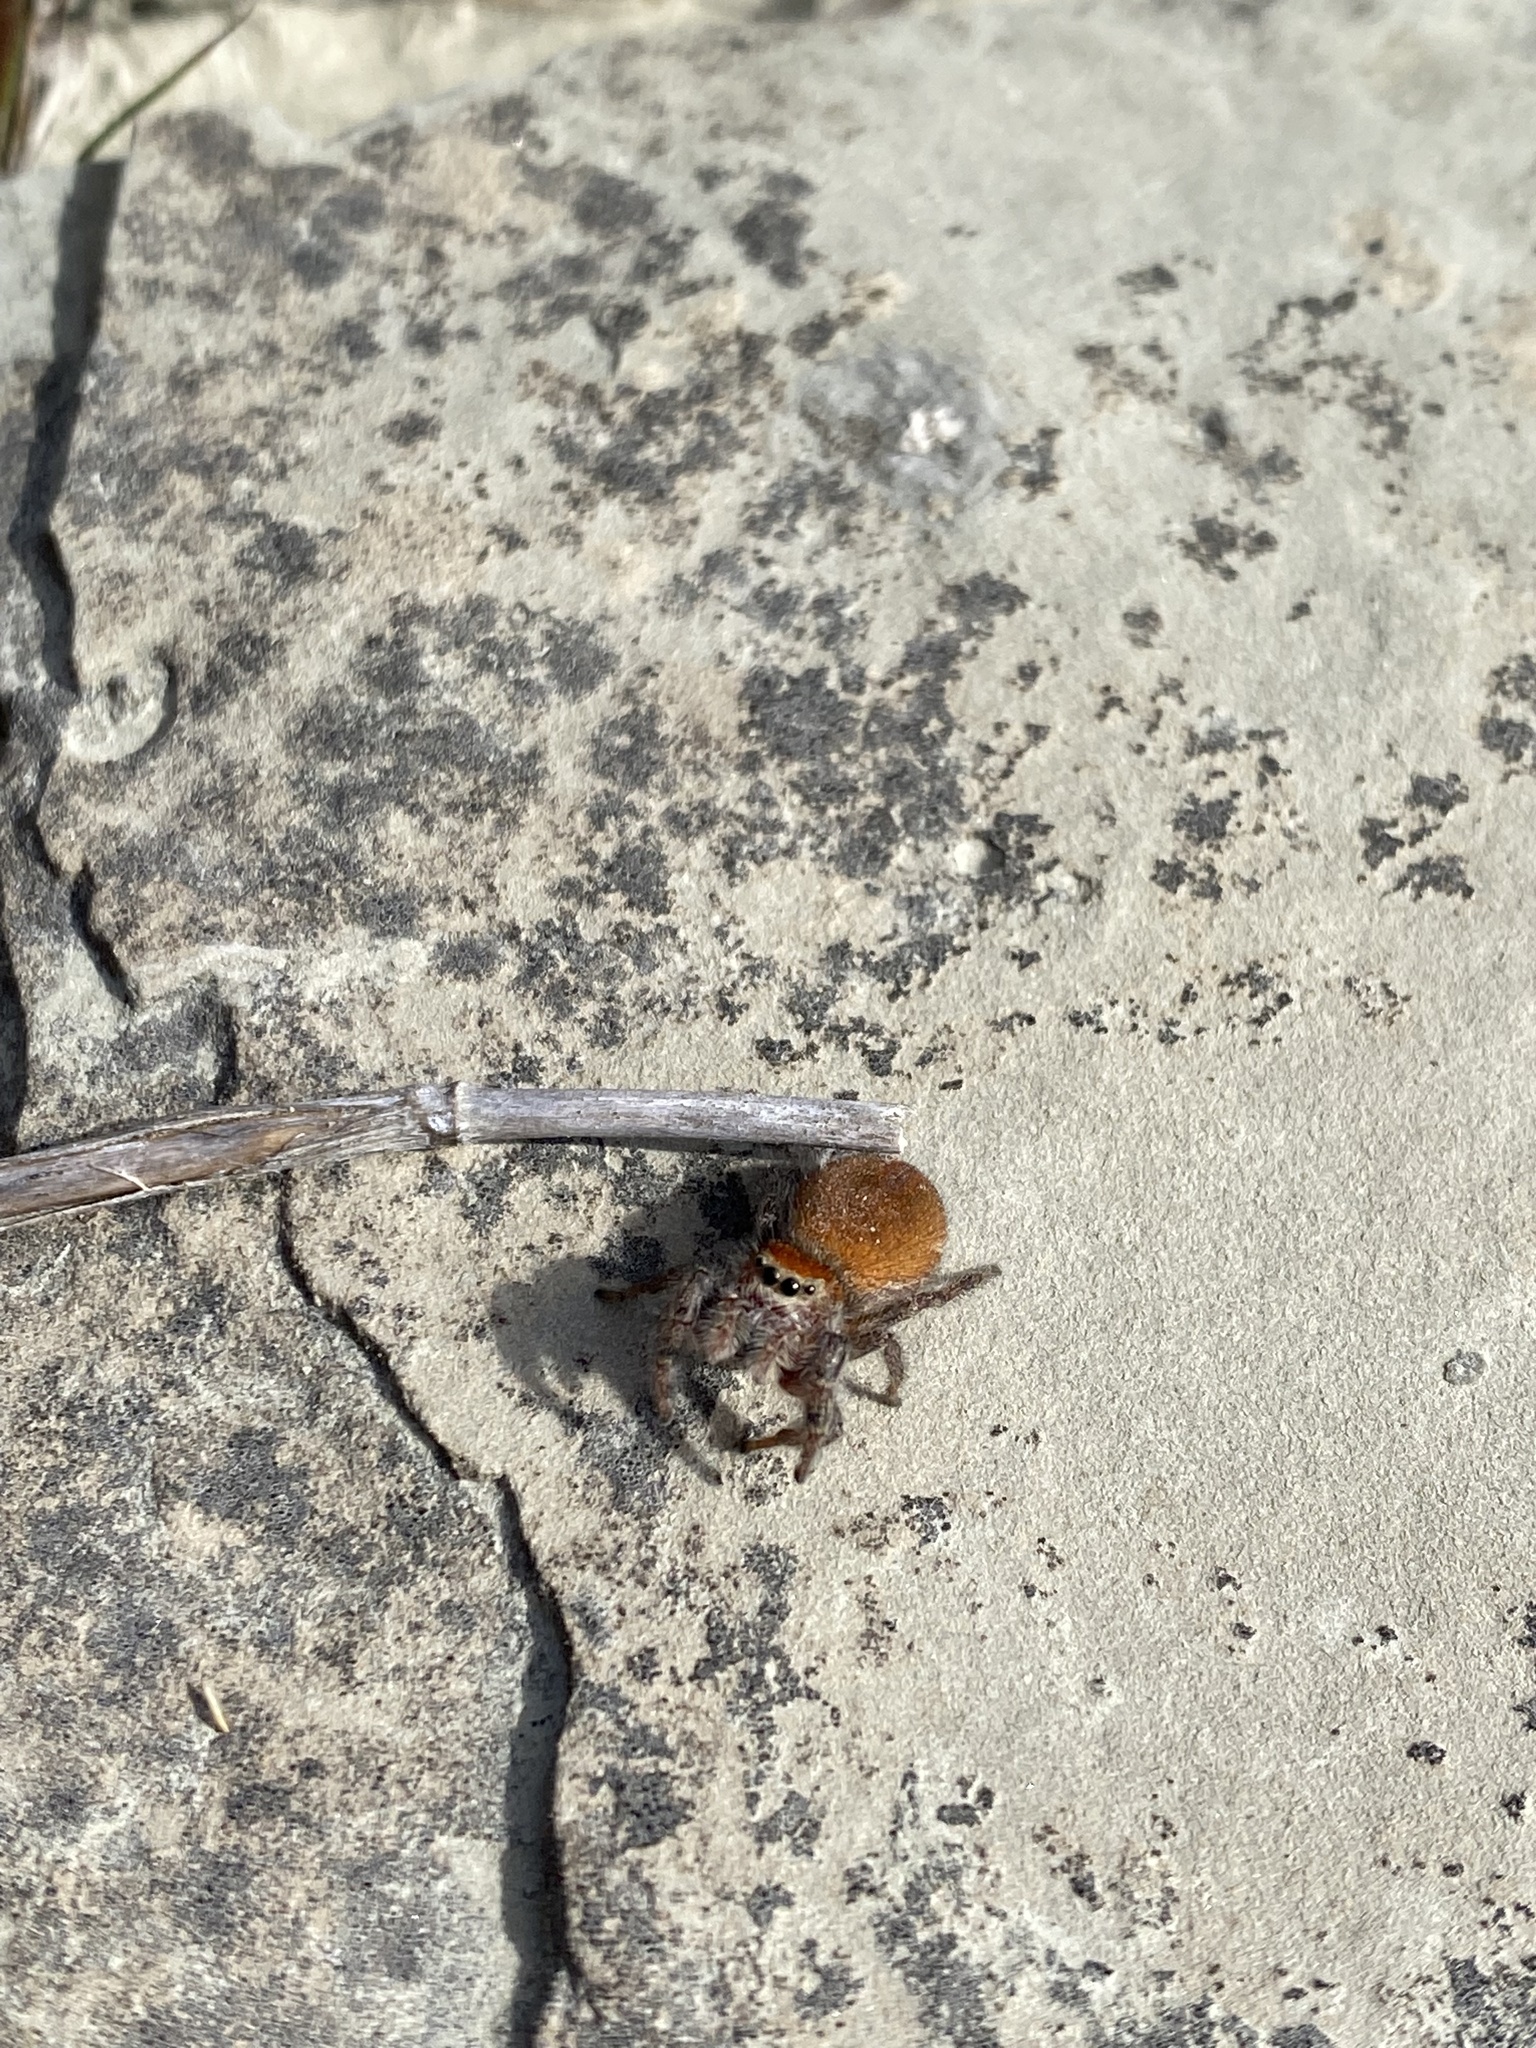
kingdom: Animalia
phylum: Arthropoda
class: Arachnida
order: Araneae
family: Salticidae
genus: Phidippus
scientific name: Phidippus cardinalis
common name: Cardinal jumper
